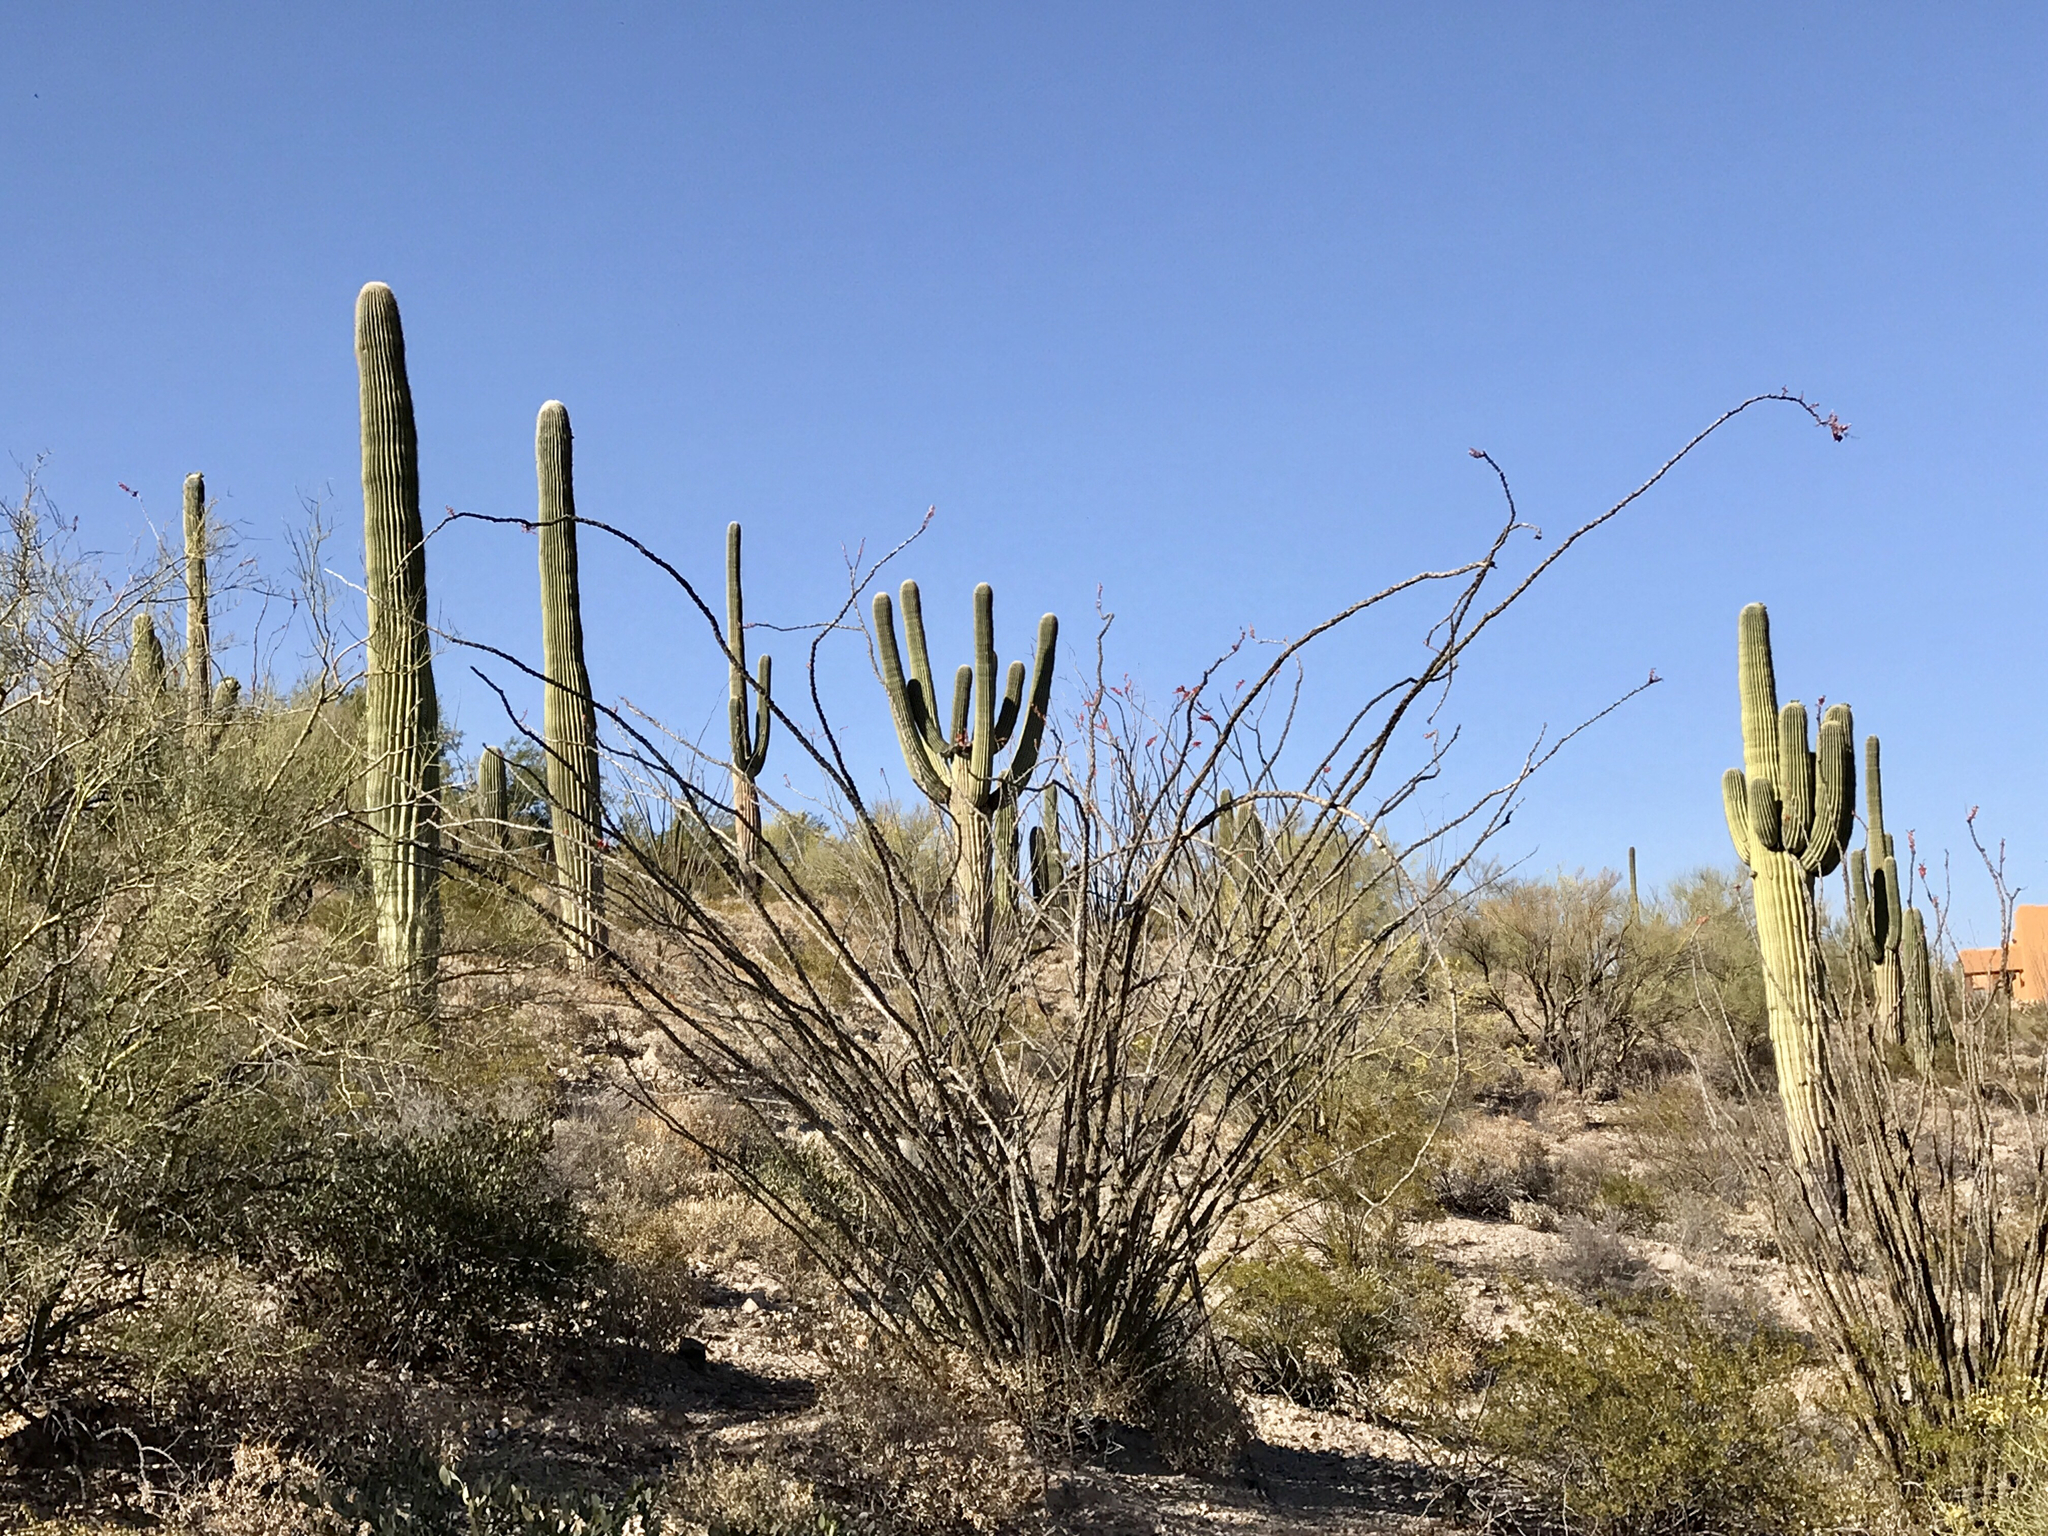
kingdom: Plantae
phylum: Tracheophyta
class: Magnoliopsida
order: Caryophyllales
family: Cactaceae
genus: Carnegiea
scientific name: Carnegiea gigantea
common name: Saguaro
